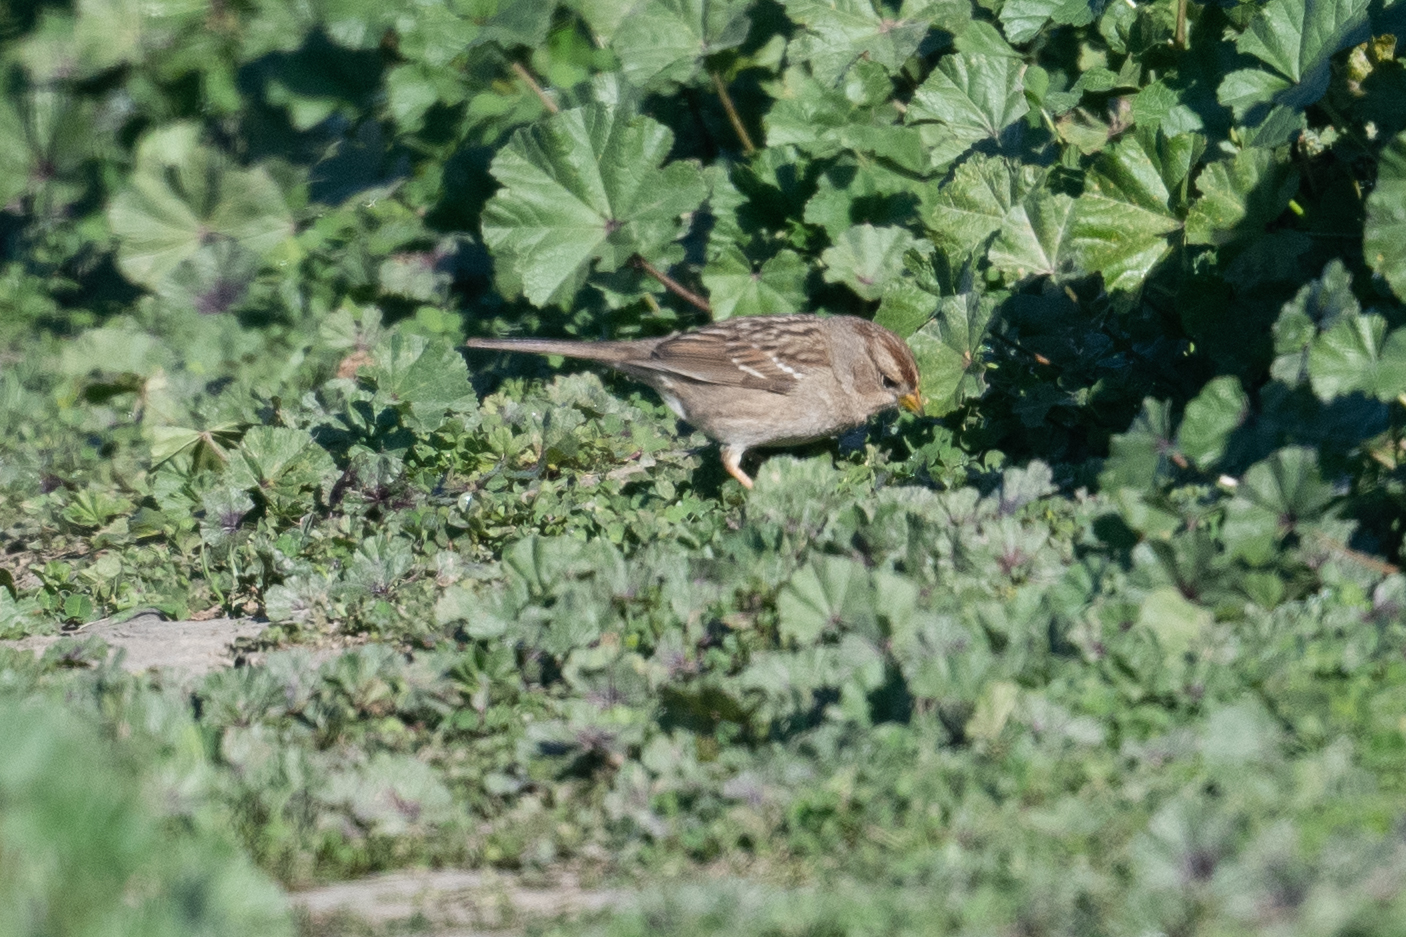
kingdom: Animalia
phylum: Chordata
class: Aves
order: Passeriformes
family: Passerellidae
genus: Zonotrichia
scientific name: Zonotrichia leucophrys
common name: White-crowned sparrow
